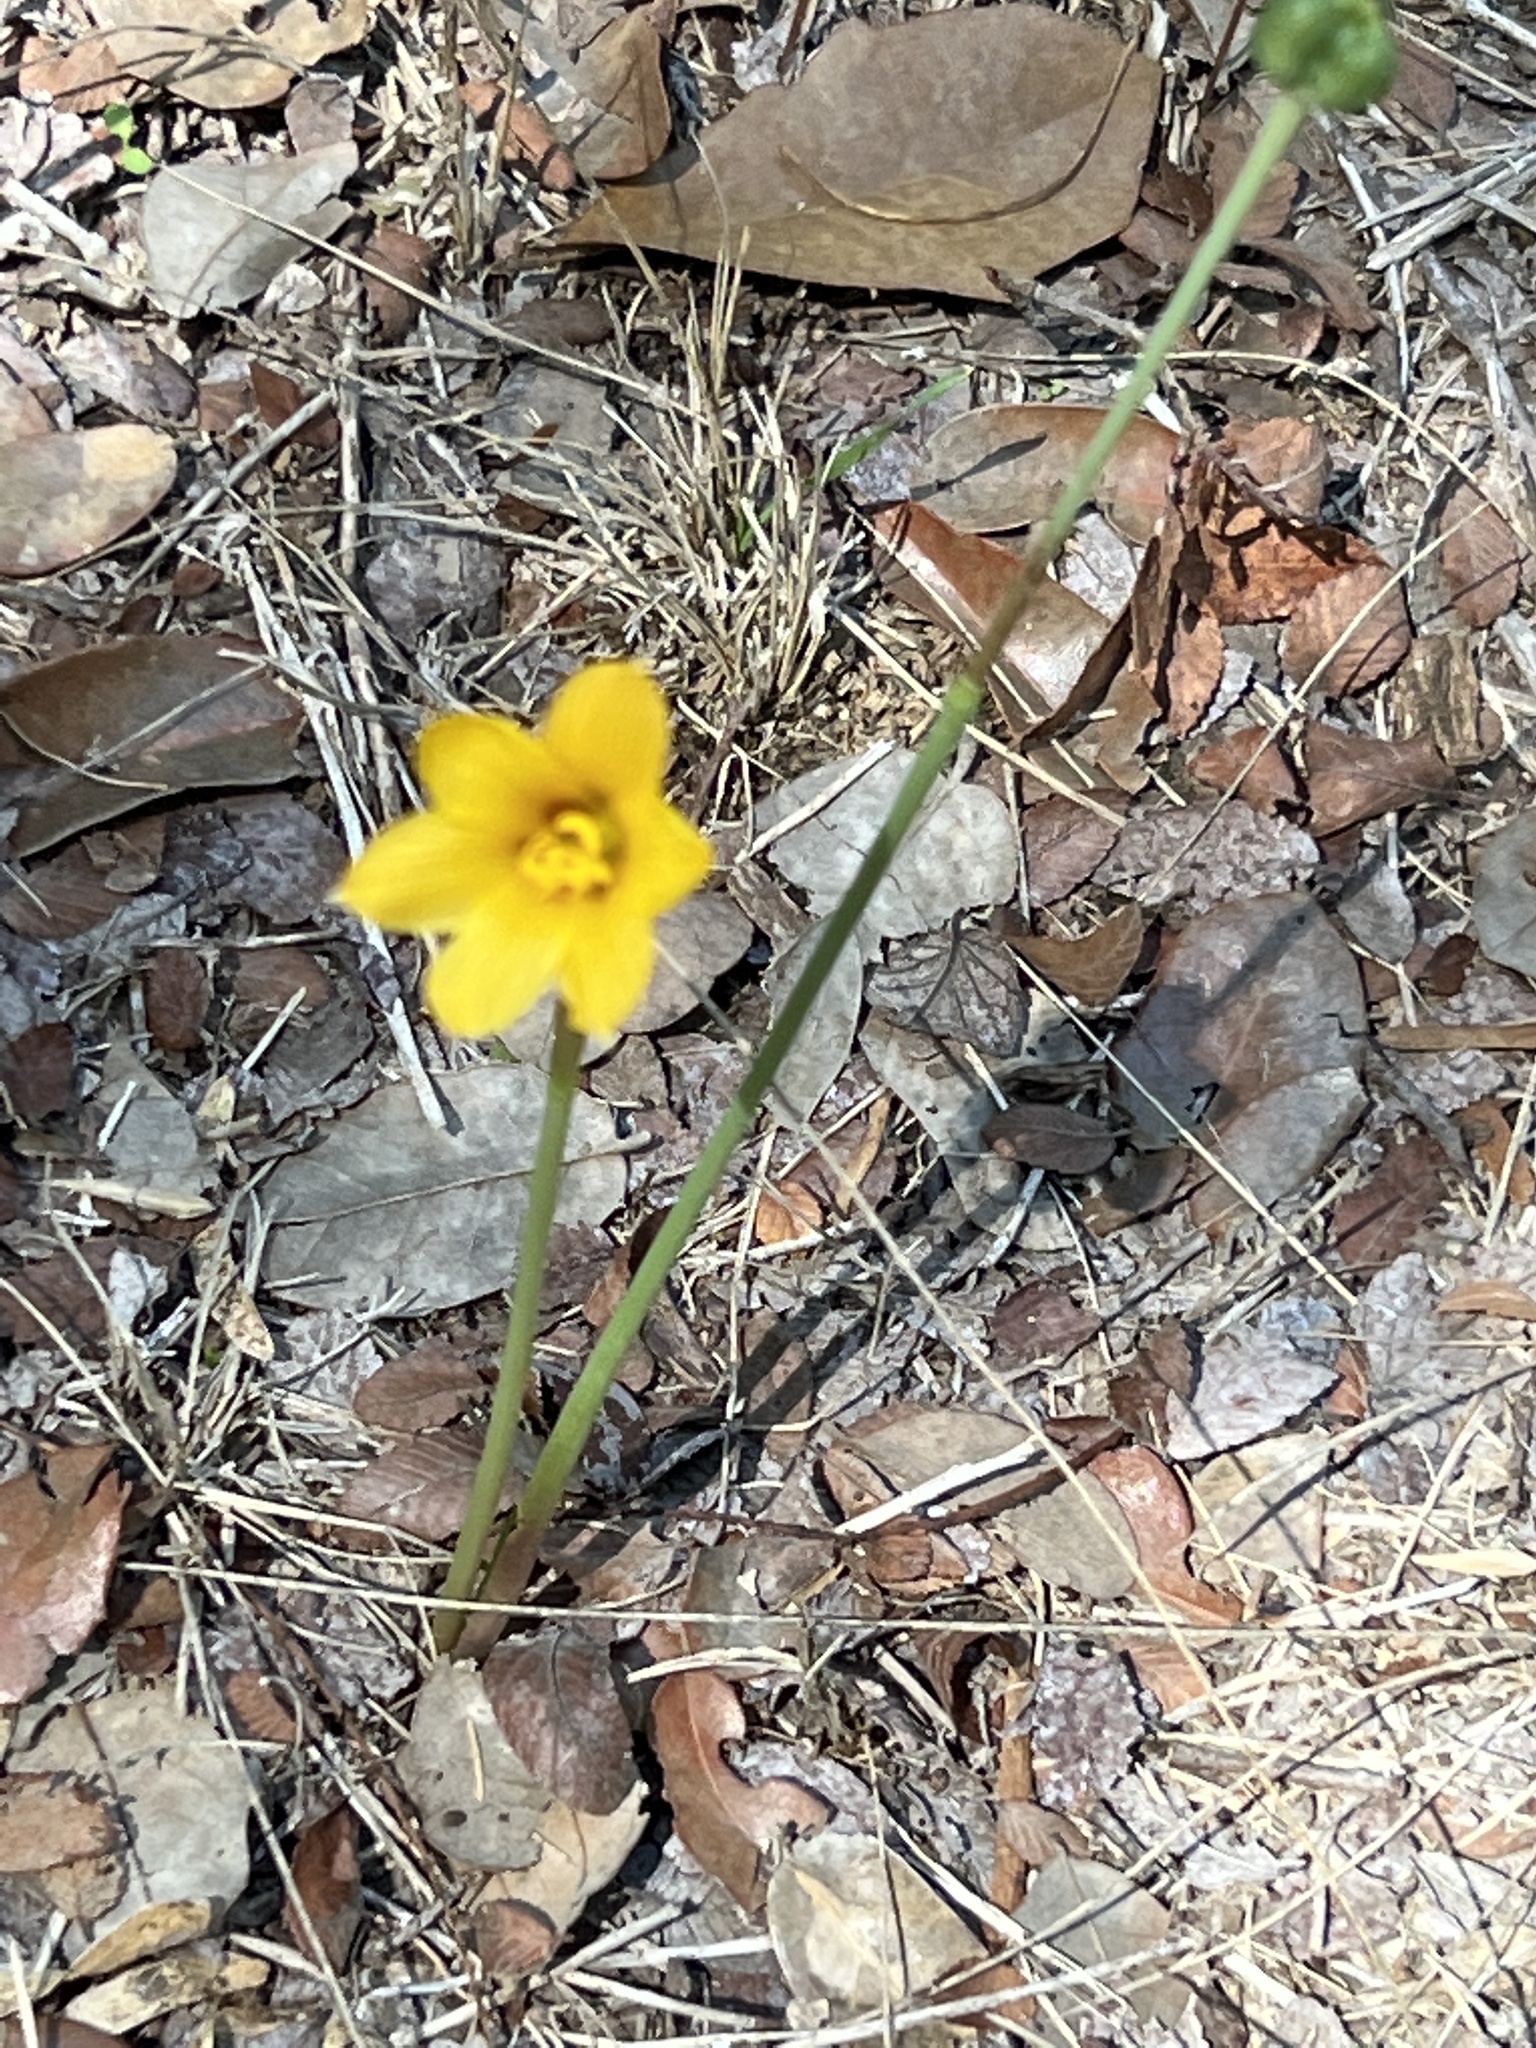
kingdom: Plantae
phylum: Tracheophyta
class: Liliopsida
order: Asparagales
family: Amaryllidaceae
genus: Zephyranthes
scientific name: Zephyranthes tubispatha
